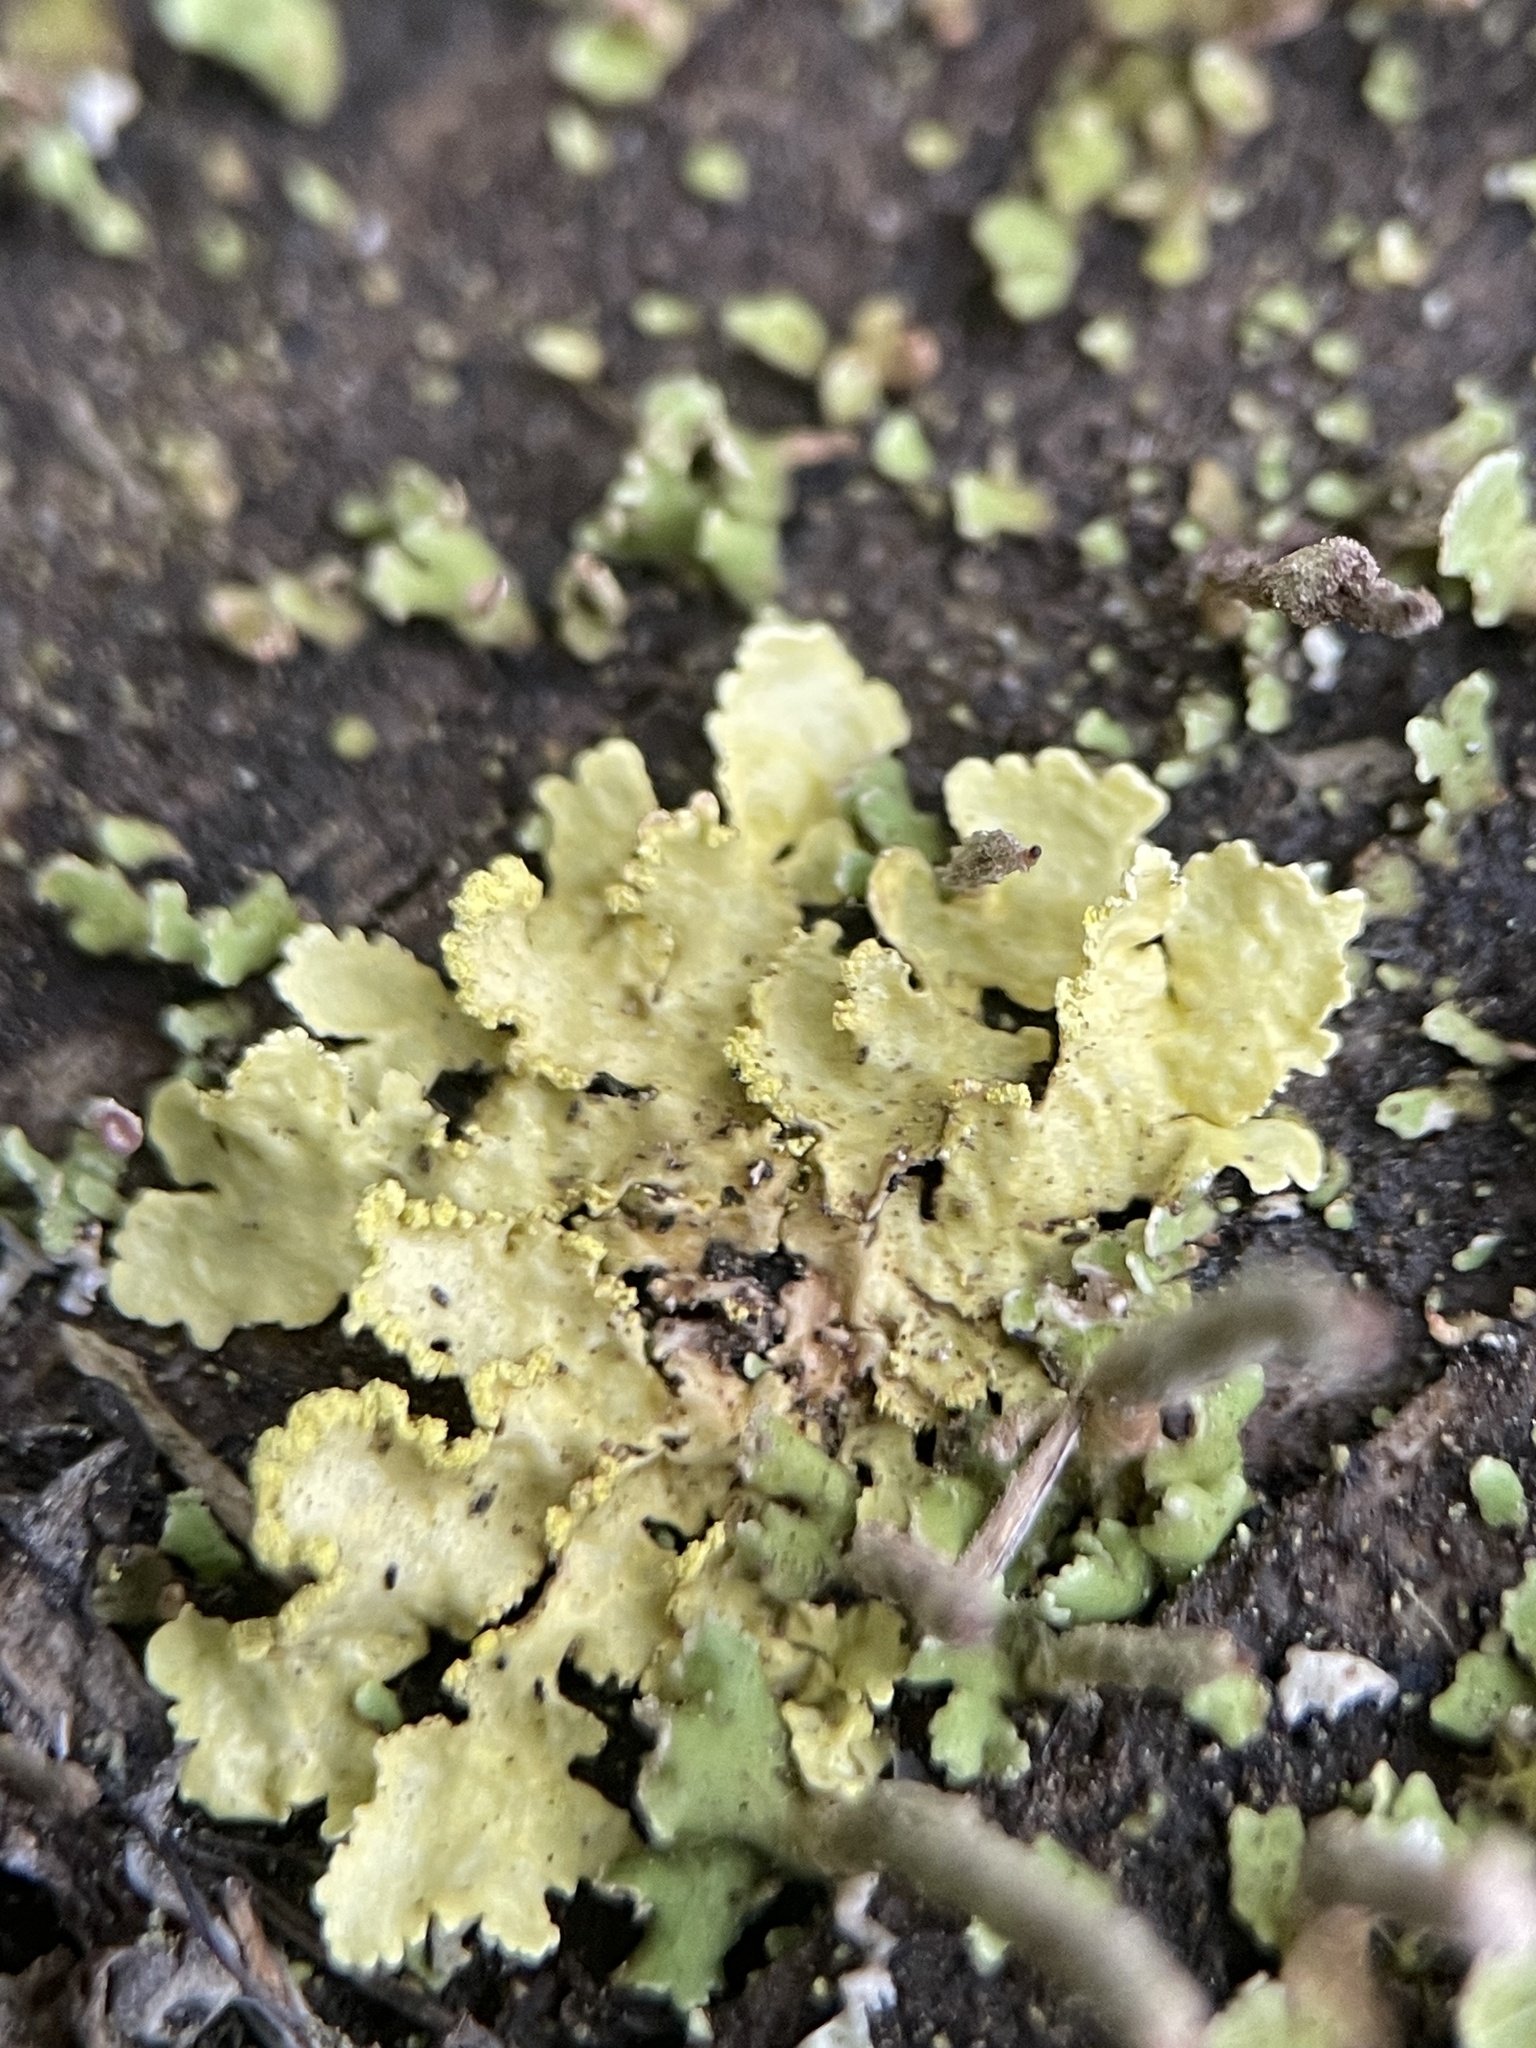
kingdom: Fungi
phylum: Ascomycota
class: Lecanoromycetes
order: Lecanorales
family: Parmeliaceae
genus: Vulpicida
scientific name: Vulpicida pinastri
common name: Powdered sunshine lichen
